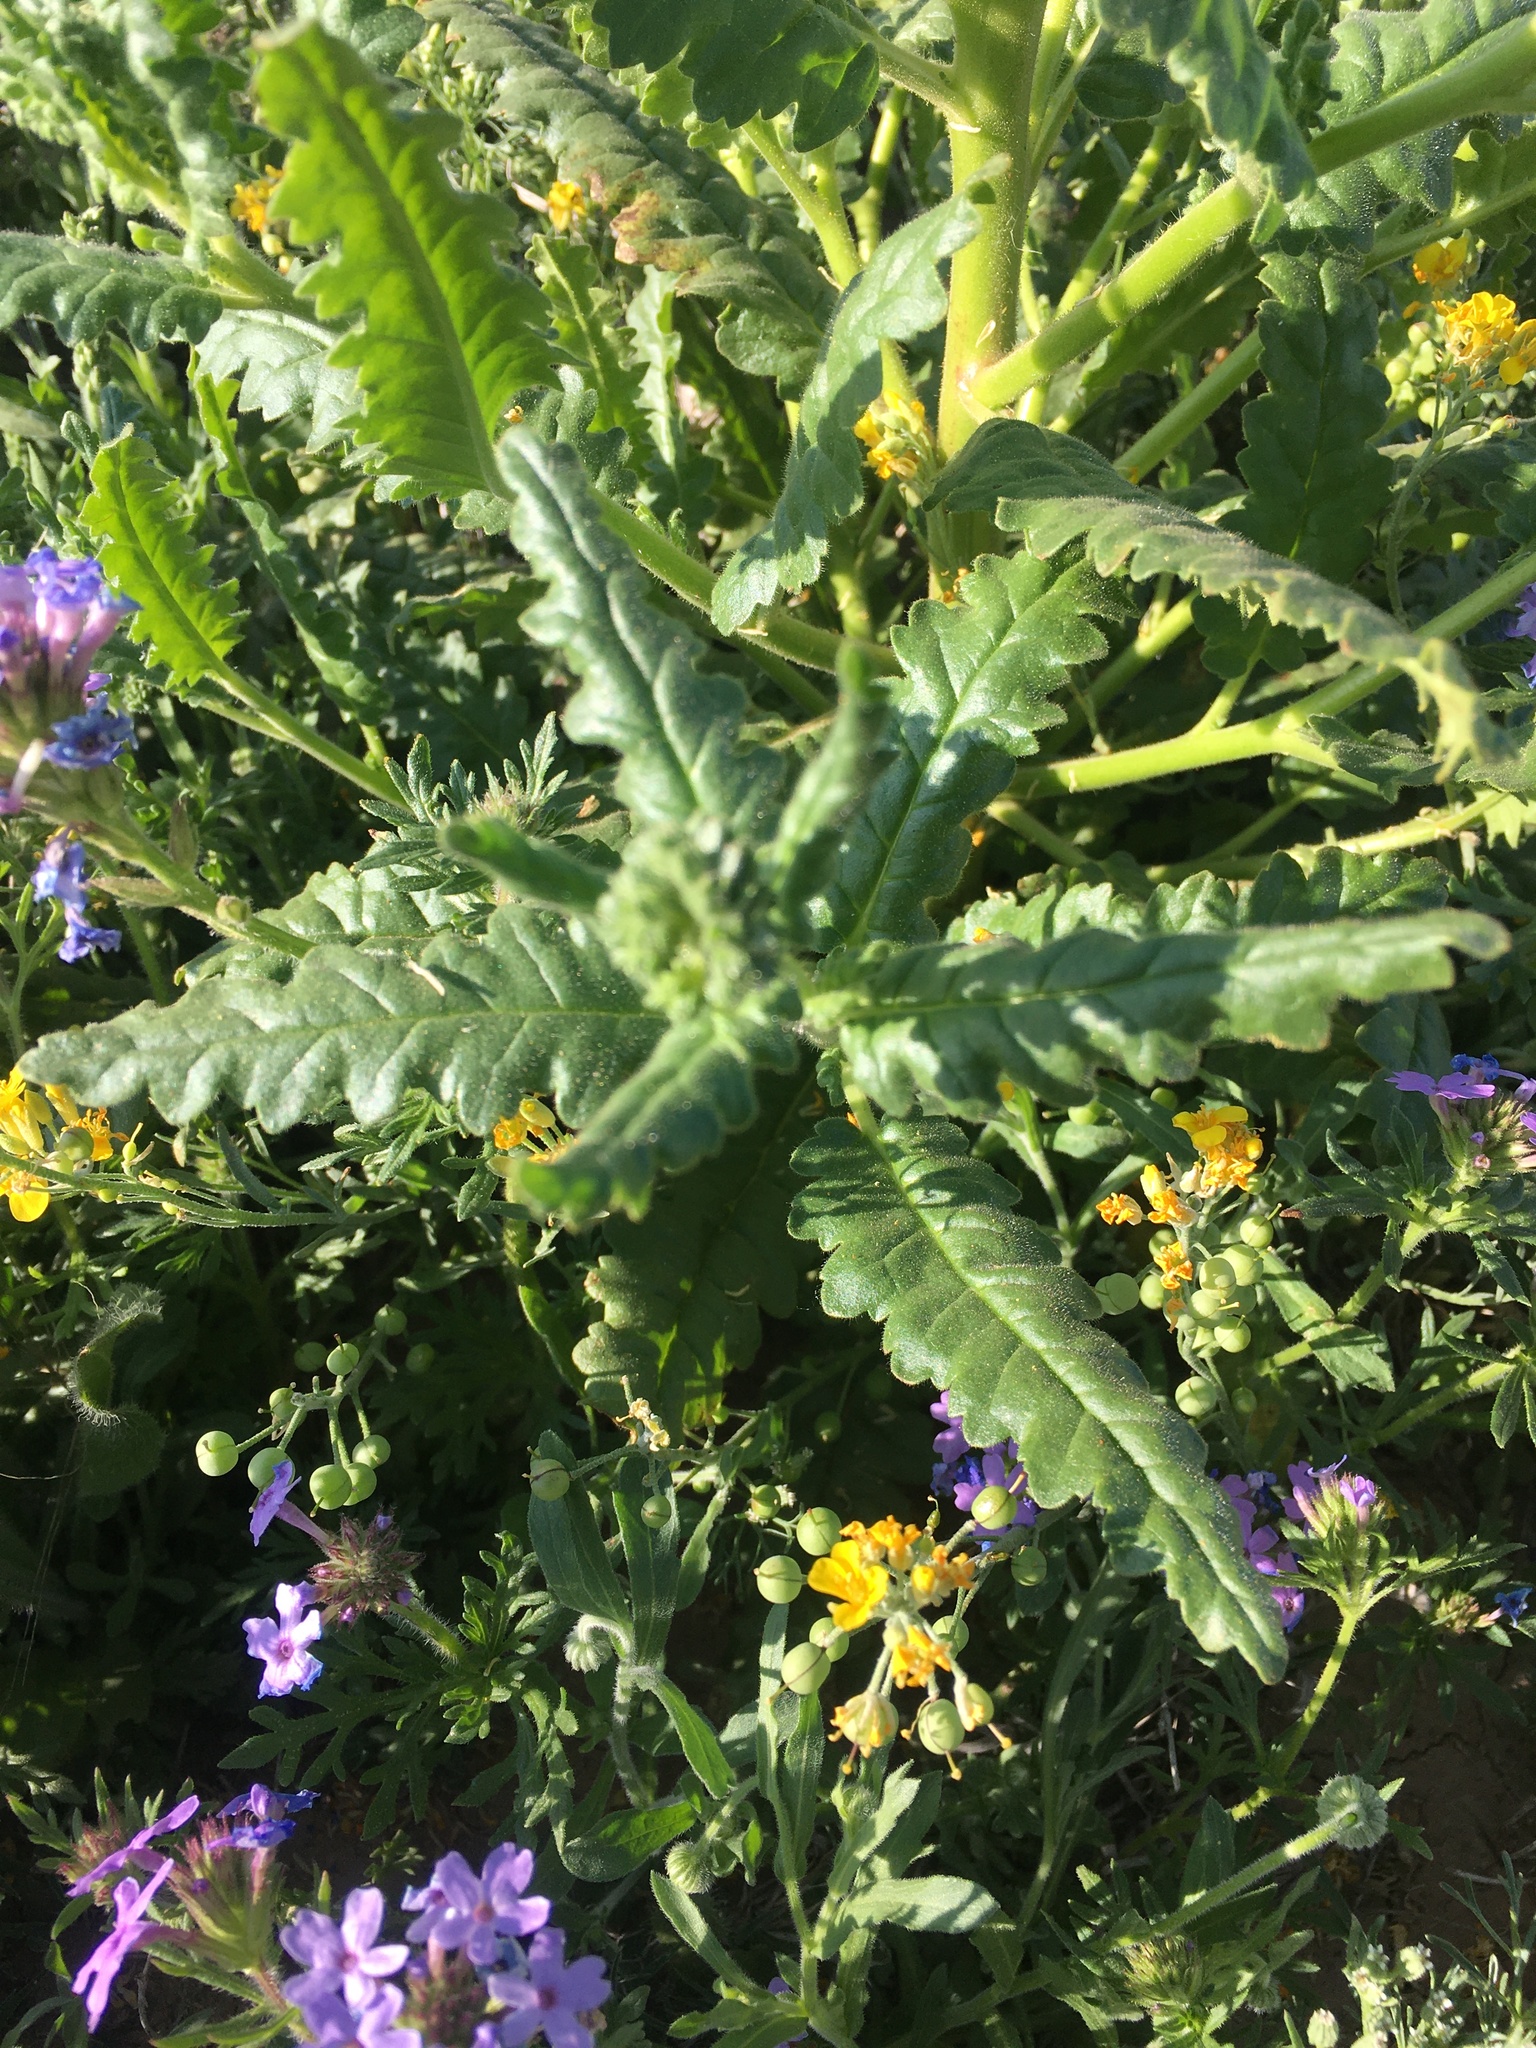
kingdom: Plantae
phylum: Tracheophyta
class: Magnoliopsida
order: Boraginales
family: Hydrophyllaceae
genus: Phacelia
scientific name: Phacelia integrifolia
